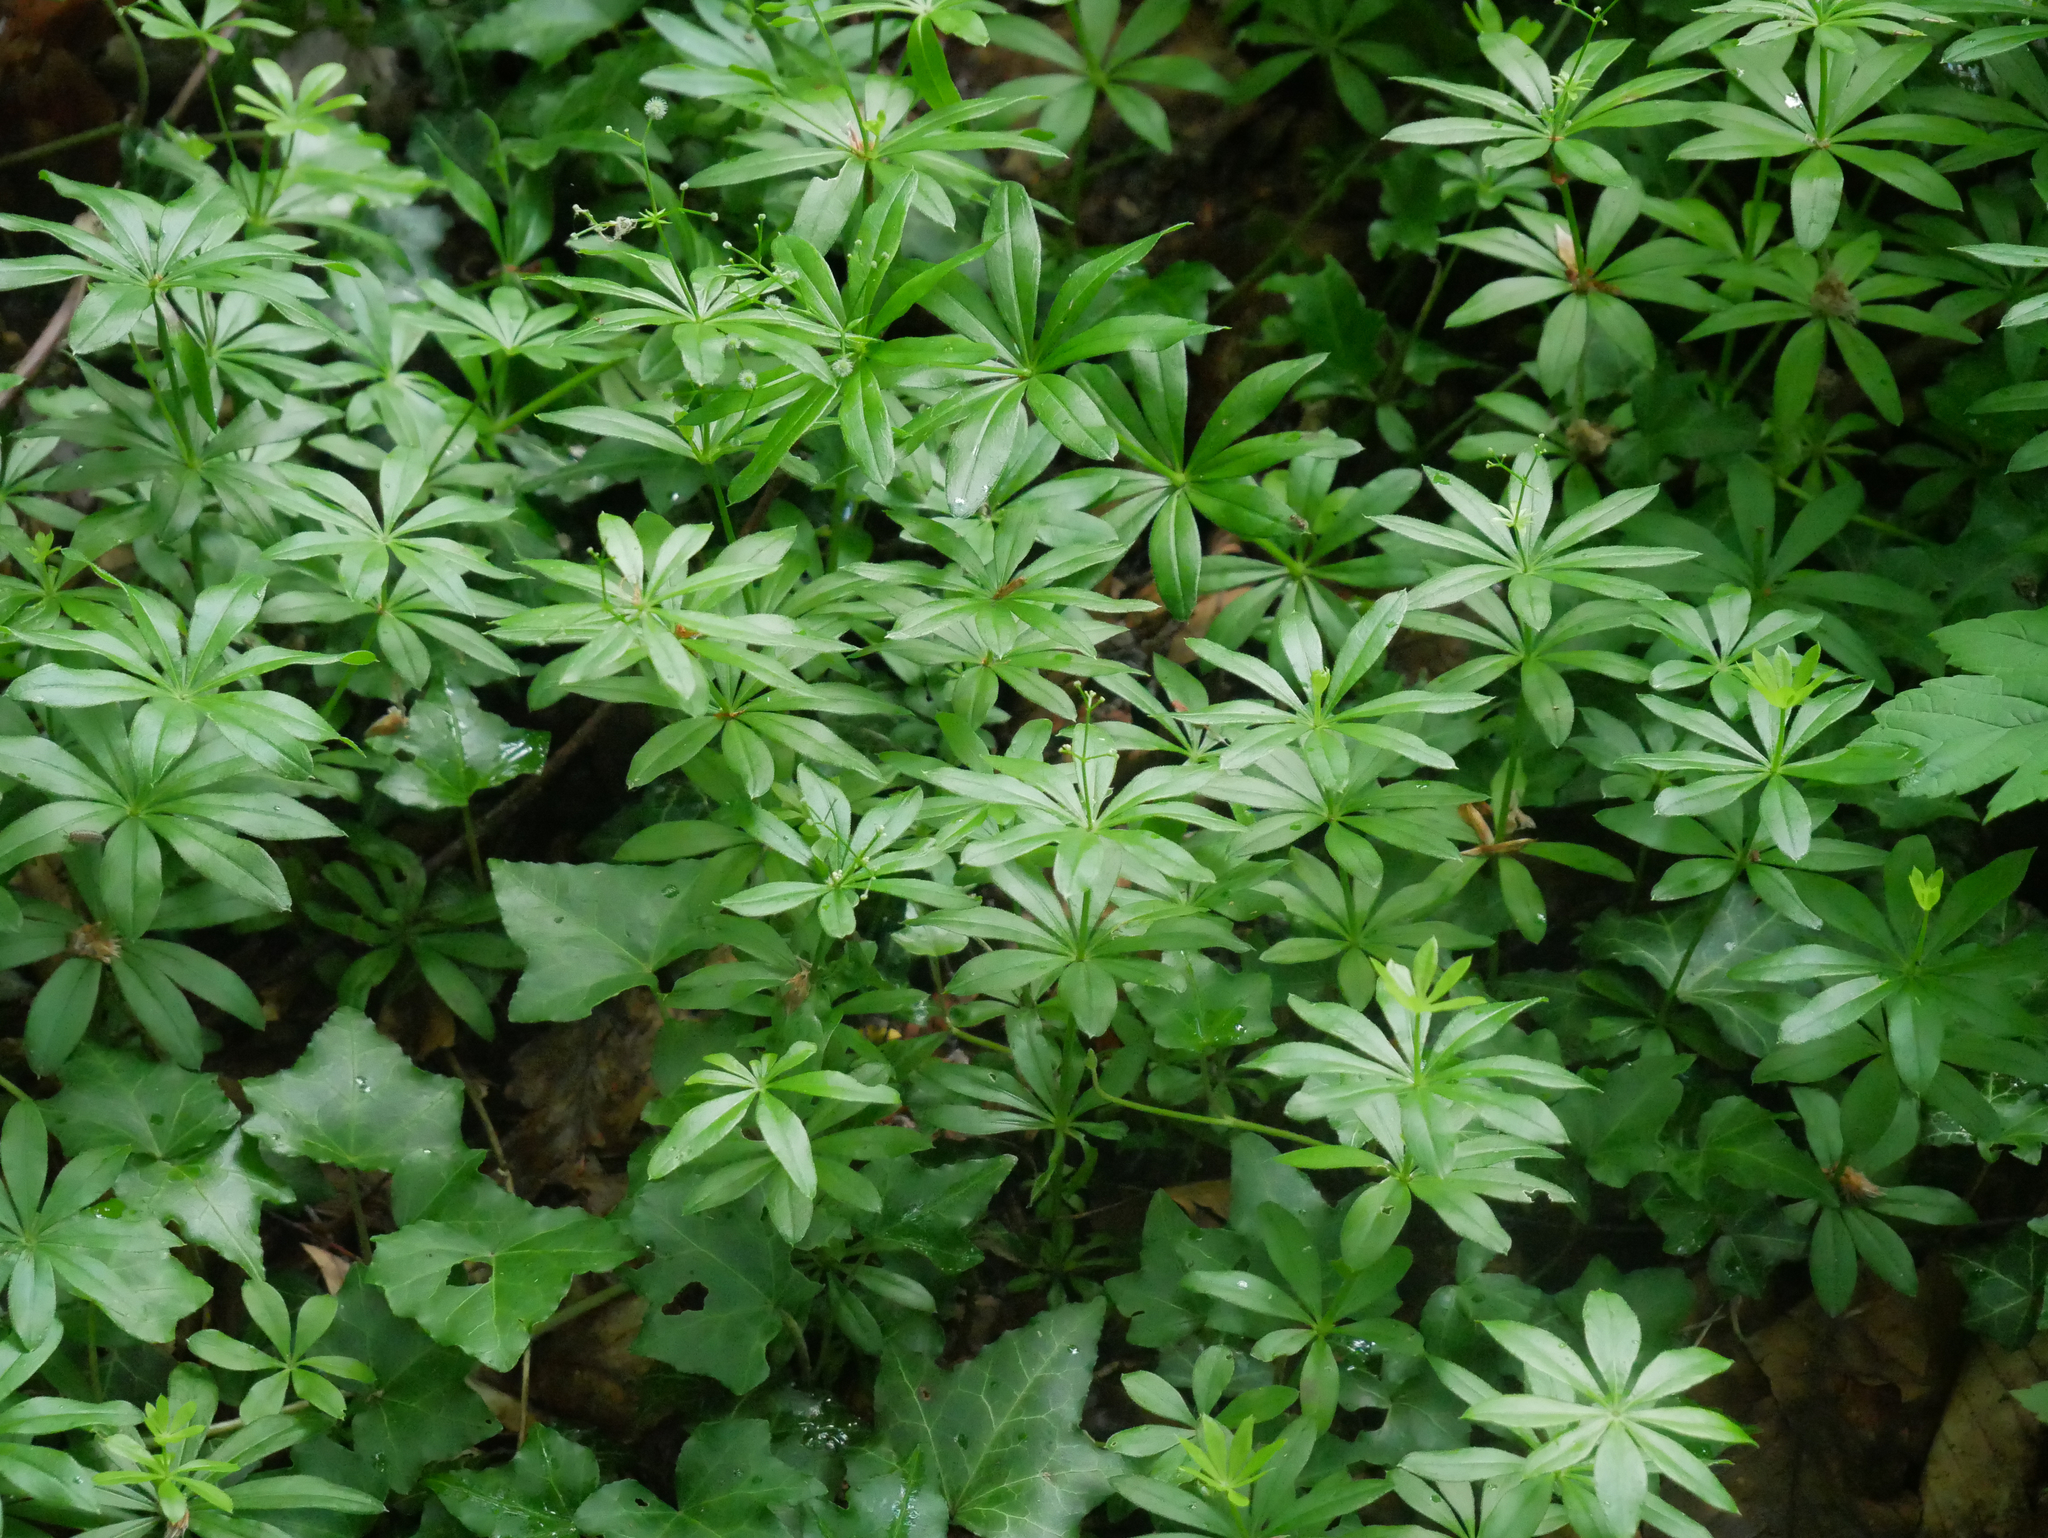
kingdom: Plantae
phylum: Tracheophyta
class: Magnoliopsida
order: Gentianales
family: Rubiaceae
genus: Galium
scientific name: Galium odoratum
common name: Sweet woodruff
